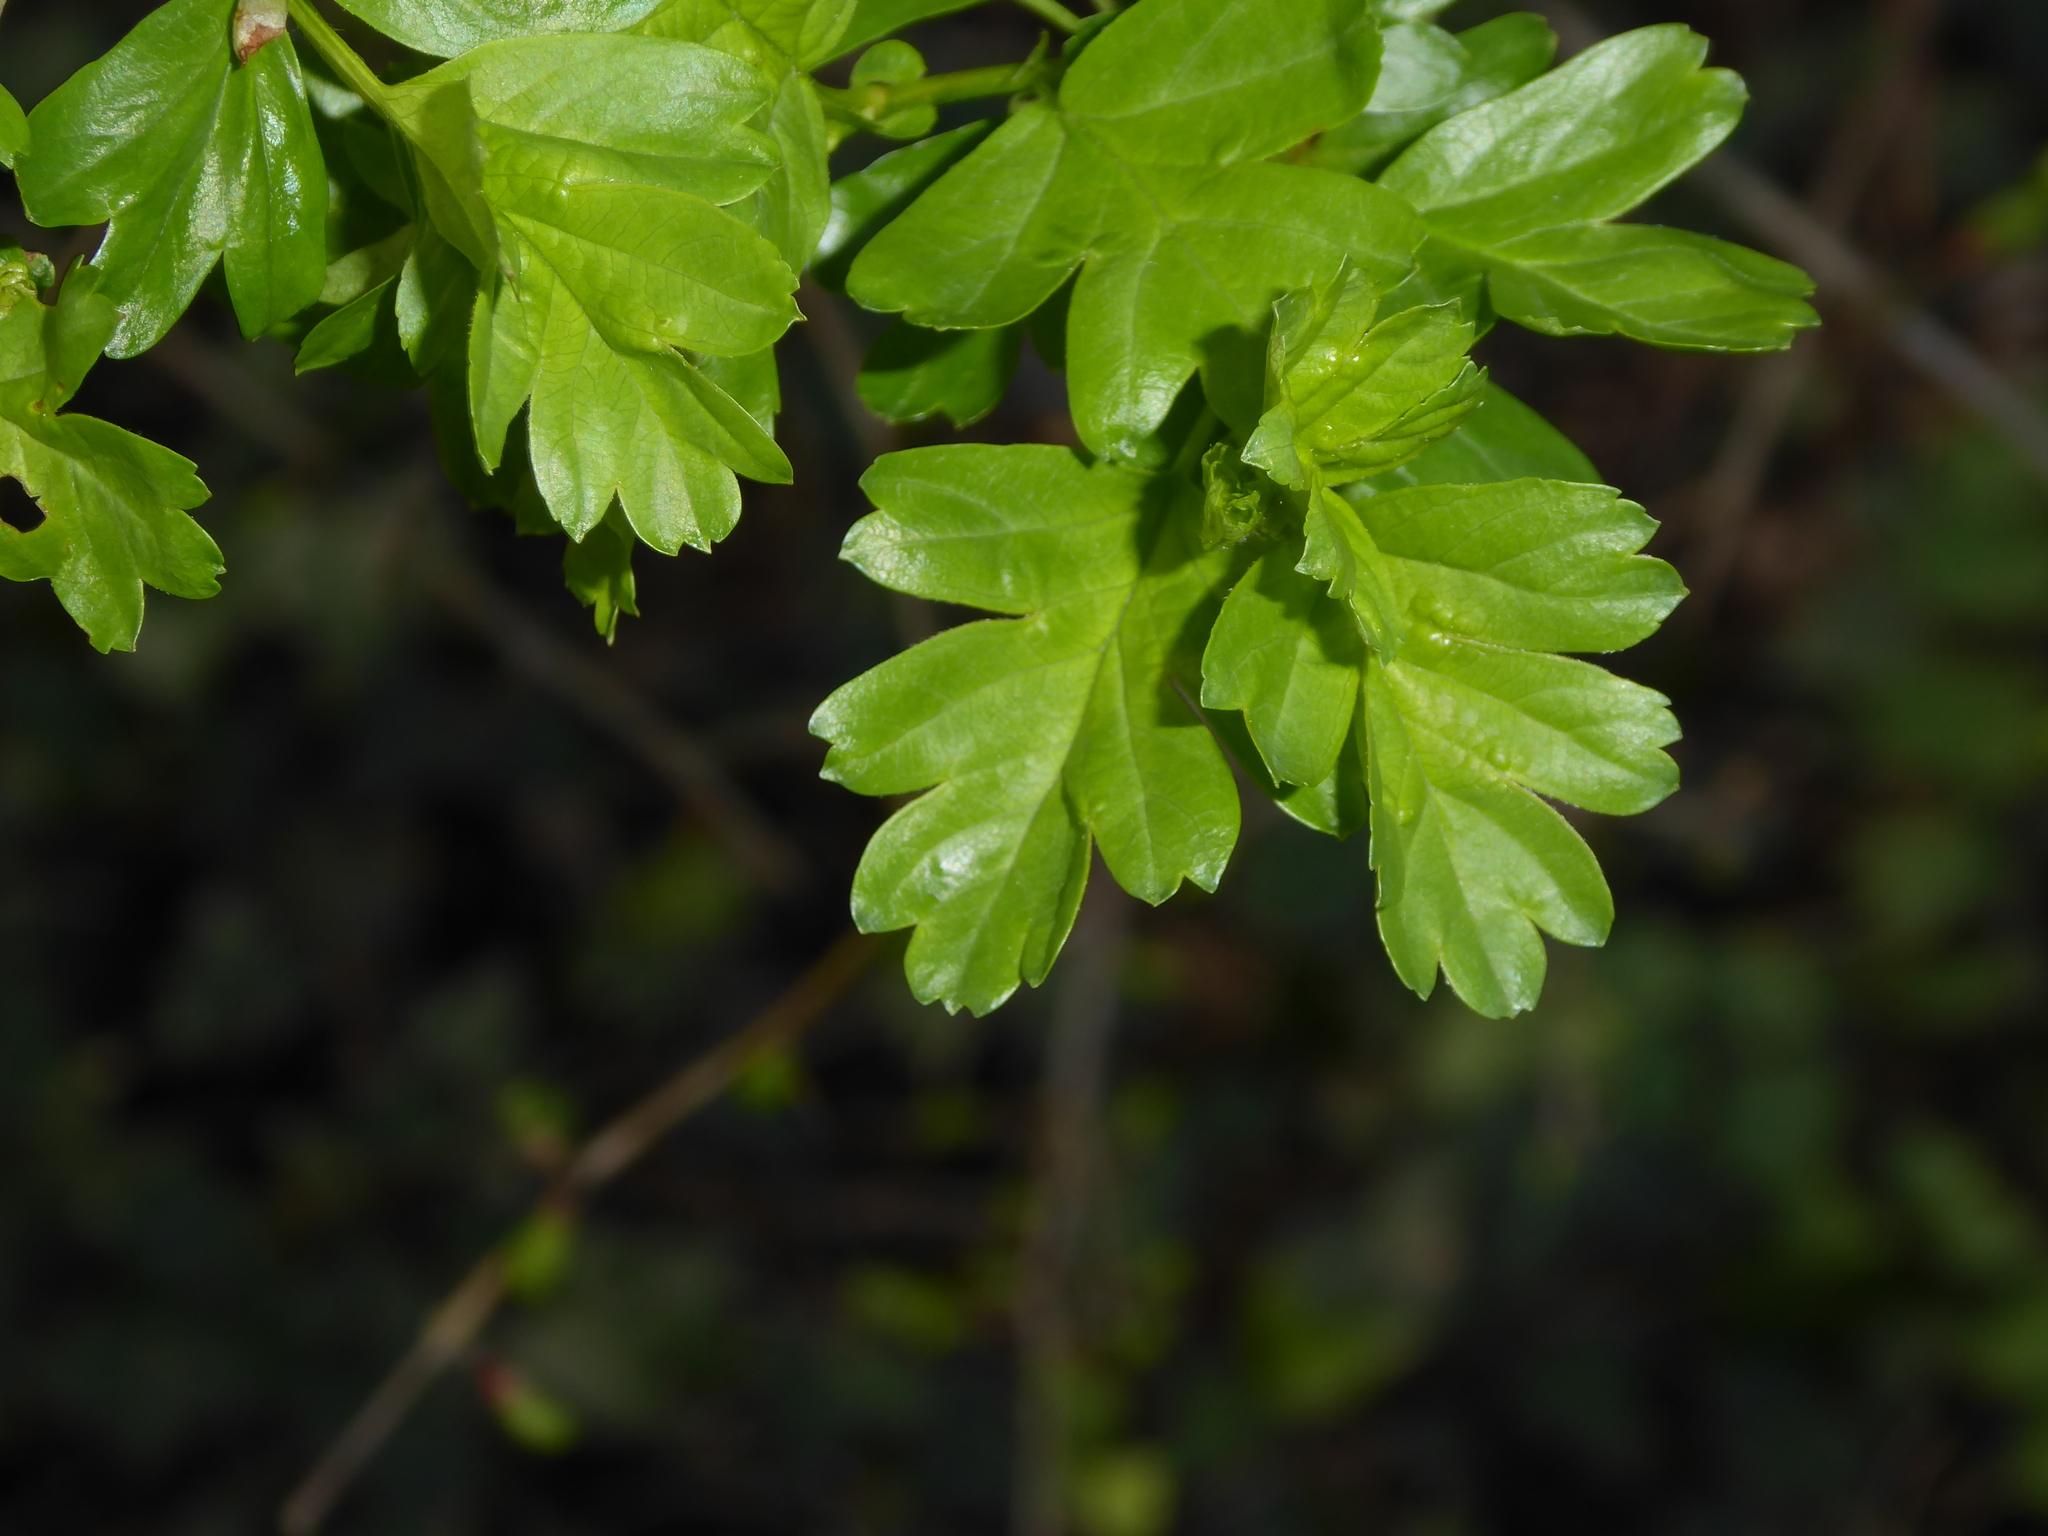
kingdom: Plantae
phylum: Tracheophyta
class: Magnoliopsida
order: Rosales
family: Rosaceae
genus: Crataegus
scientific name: Crataegus monogyna
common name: Hawthorn
